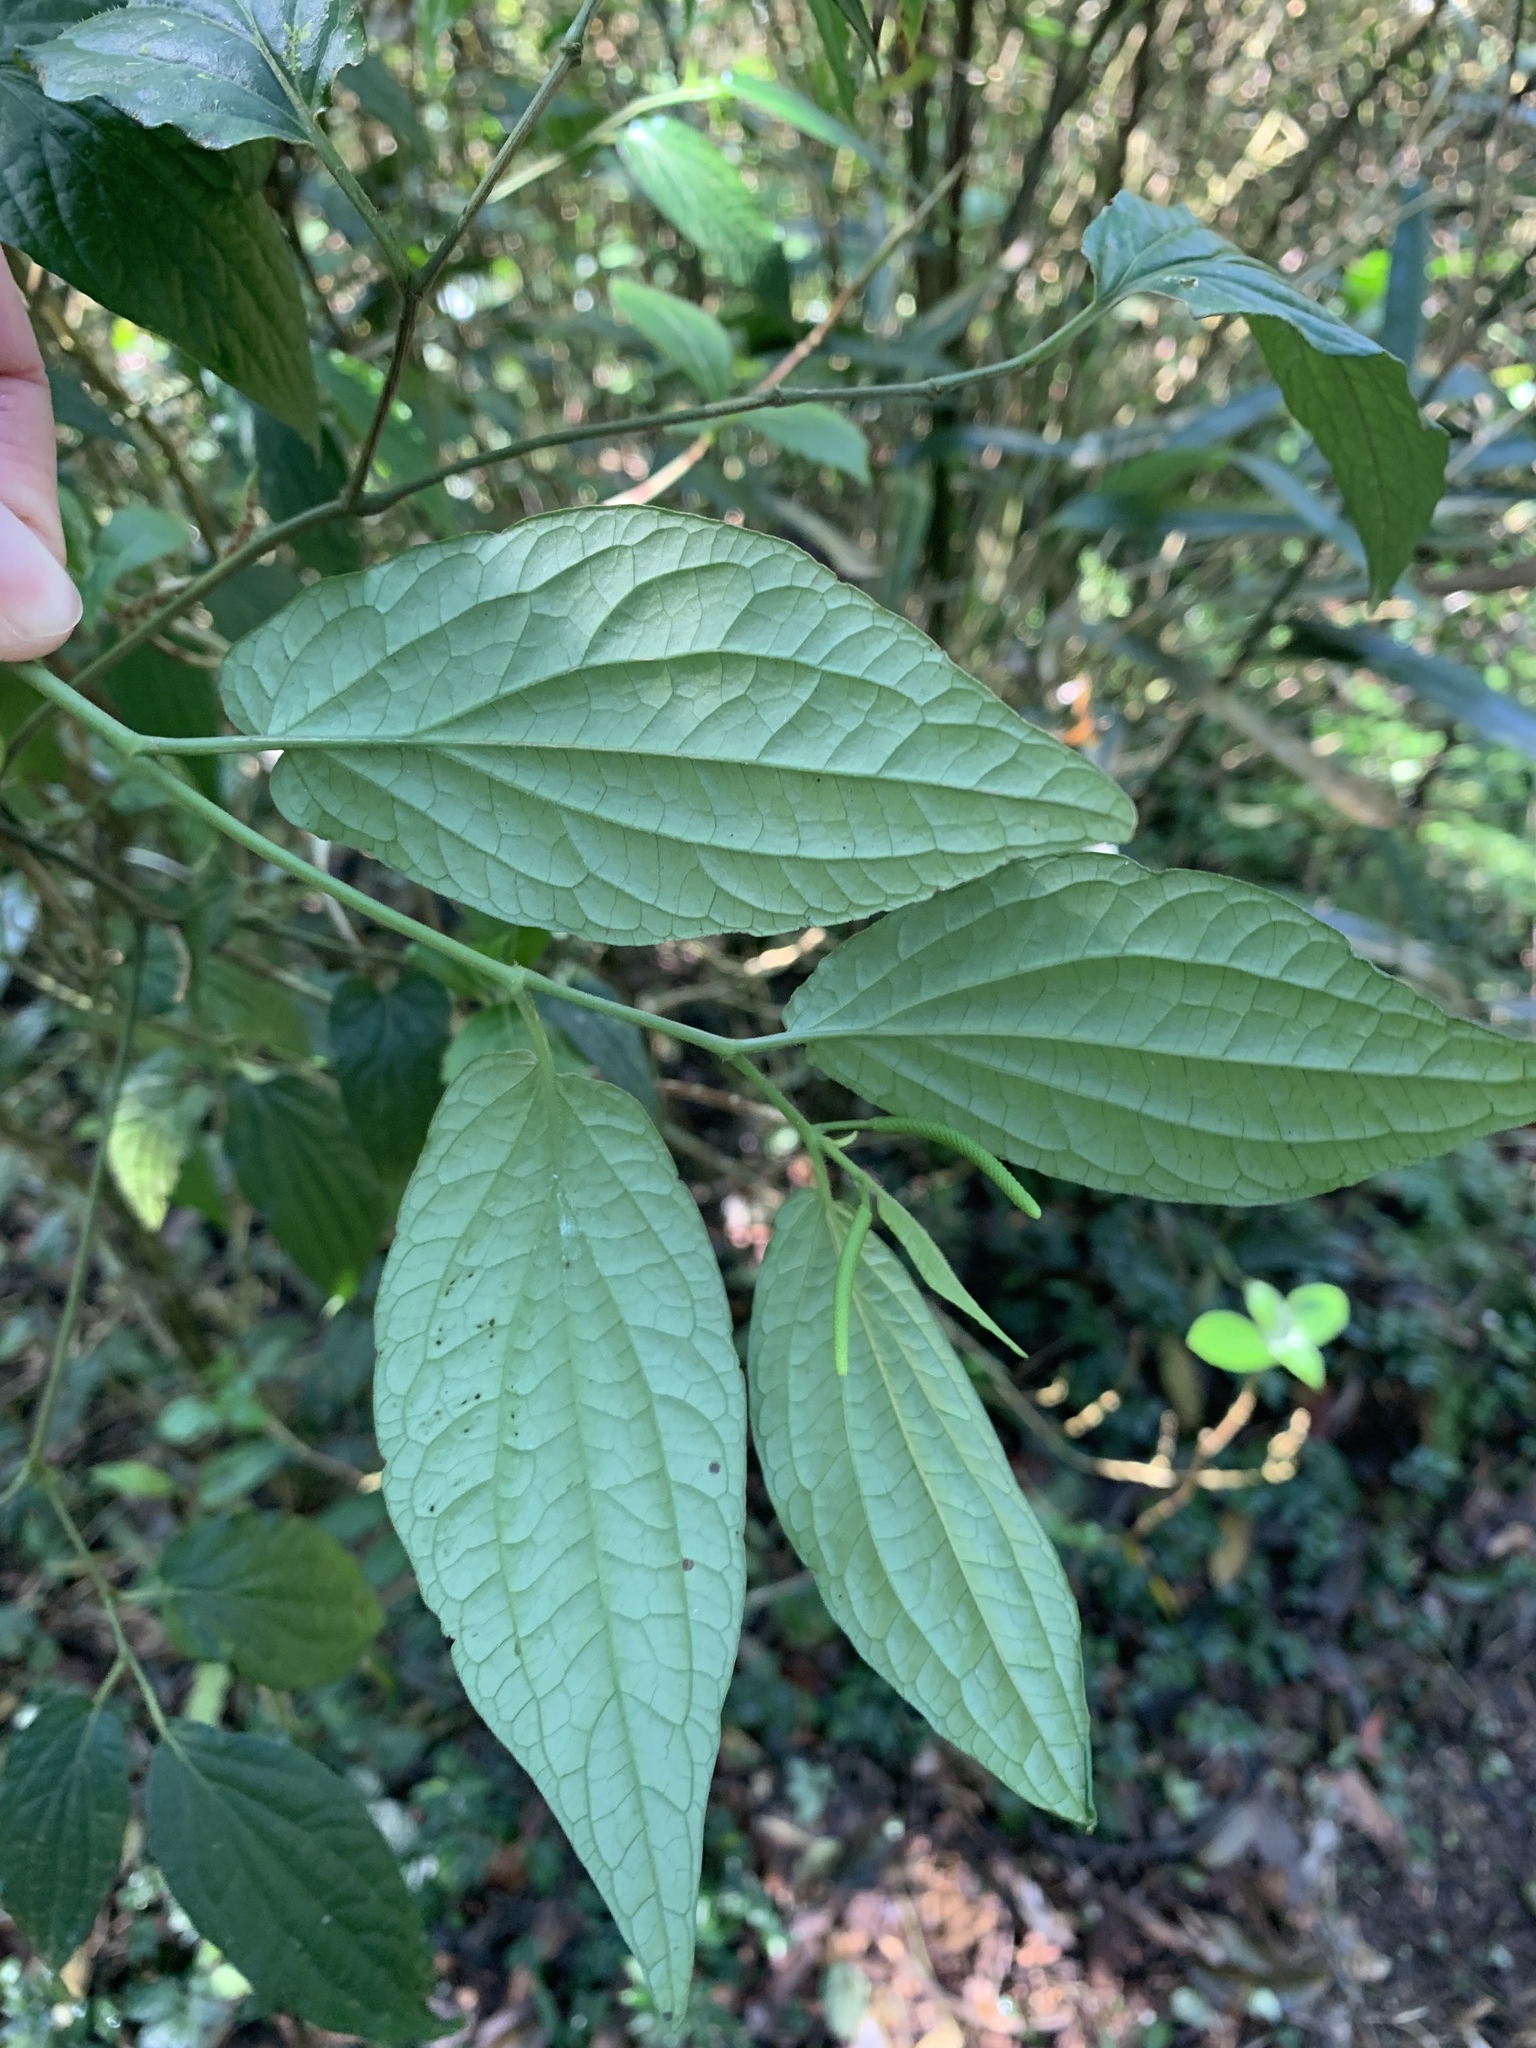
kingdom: Plantae
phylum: Tracheophyta
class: Magnoliopsida
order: Piperales
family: Piperaceae
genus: Piper
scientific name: Piper sintenense
